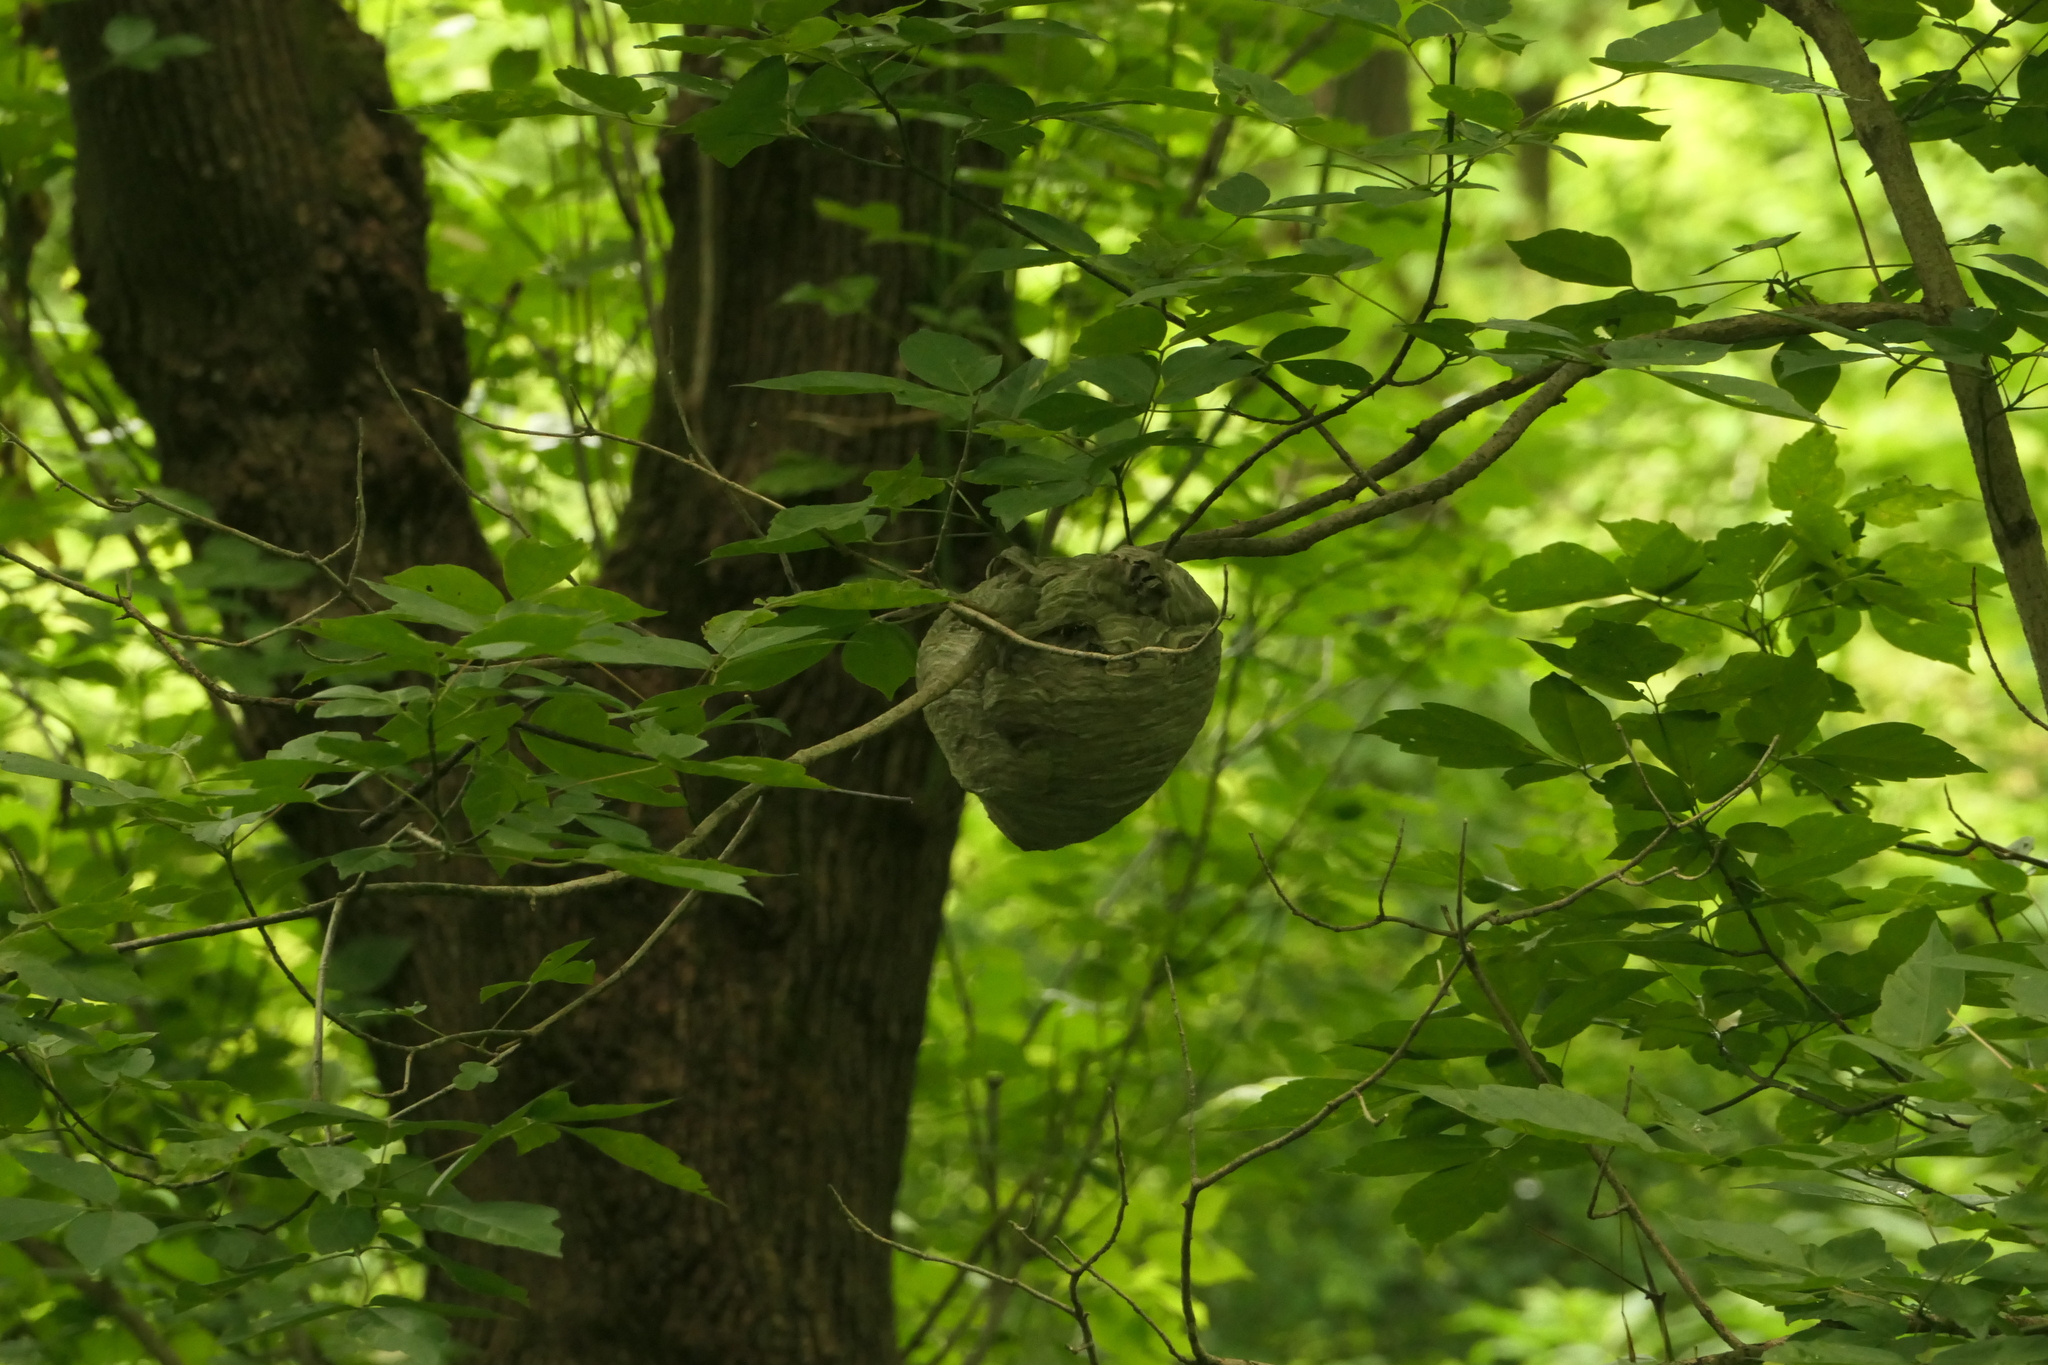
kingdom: Animalia
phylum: Arthropoda
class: Insecta
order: Hymenoptera
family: Vespidae
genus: Dolichovespula
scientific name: Dolichovespula maculata
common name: Bald-faced hornet
